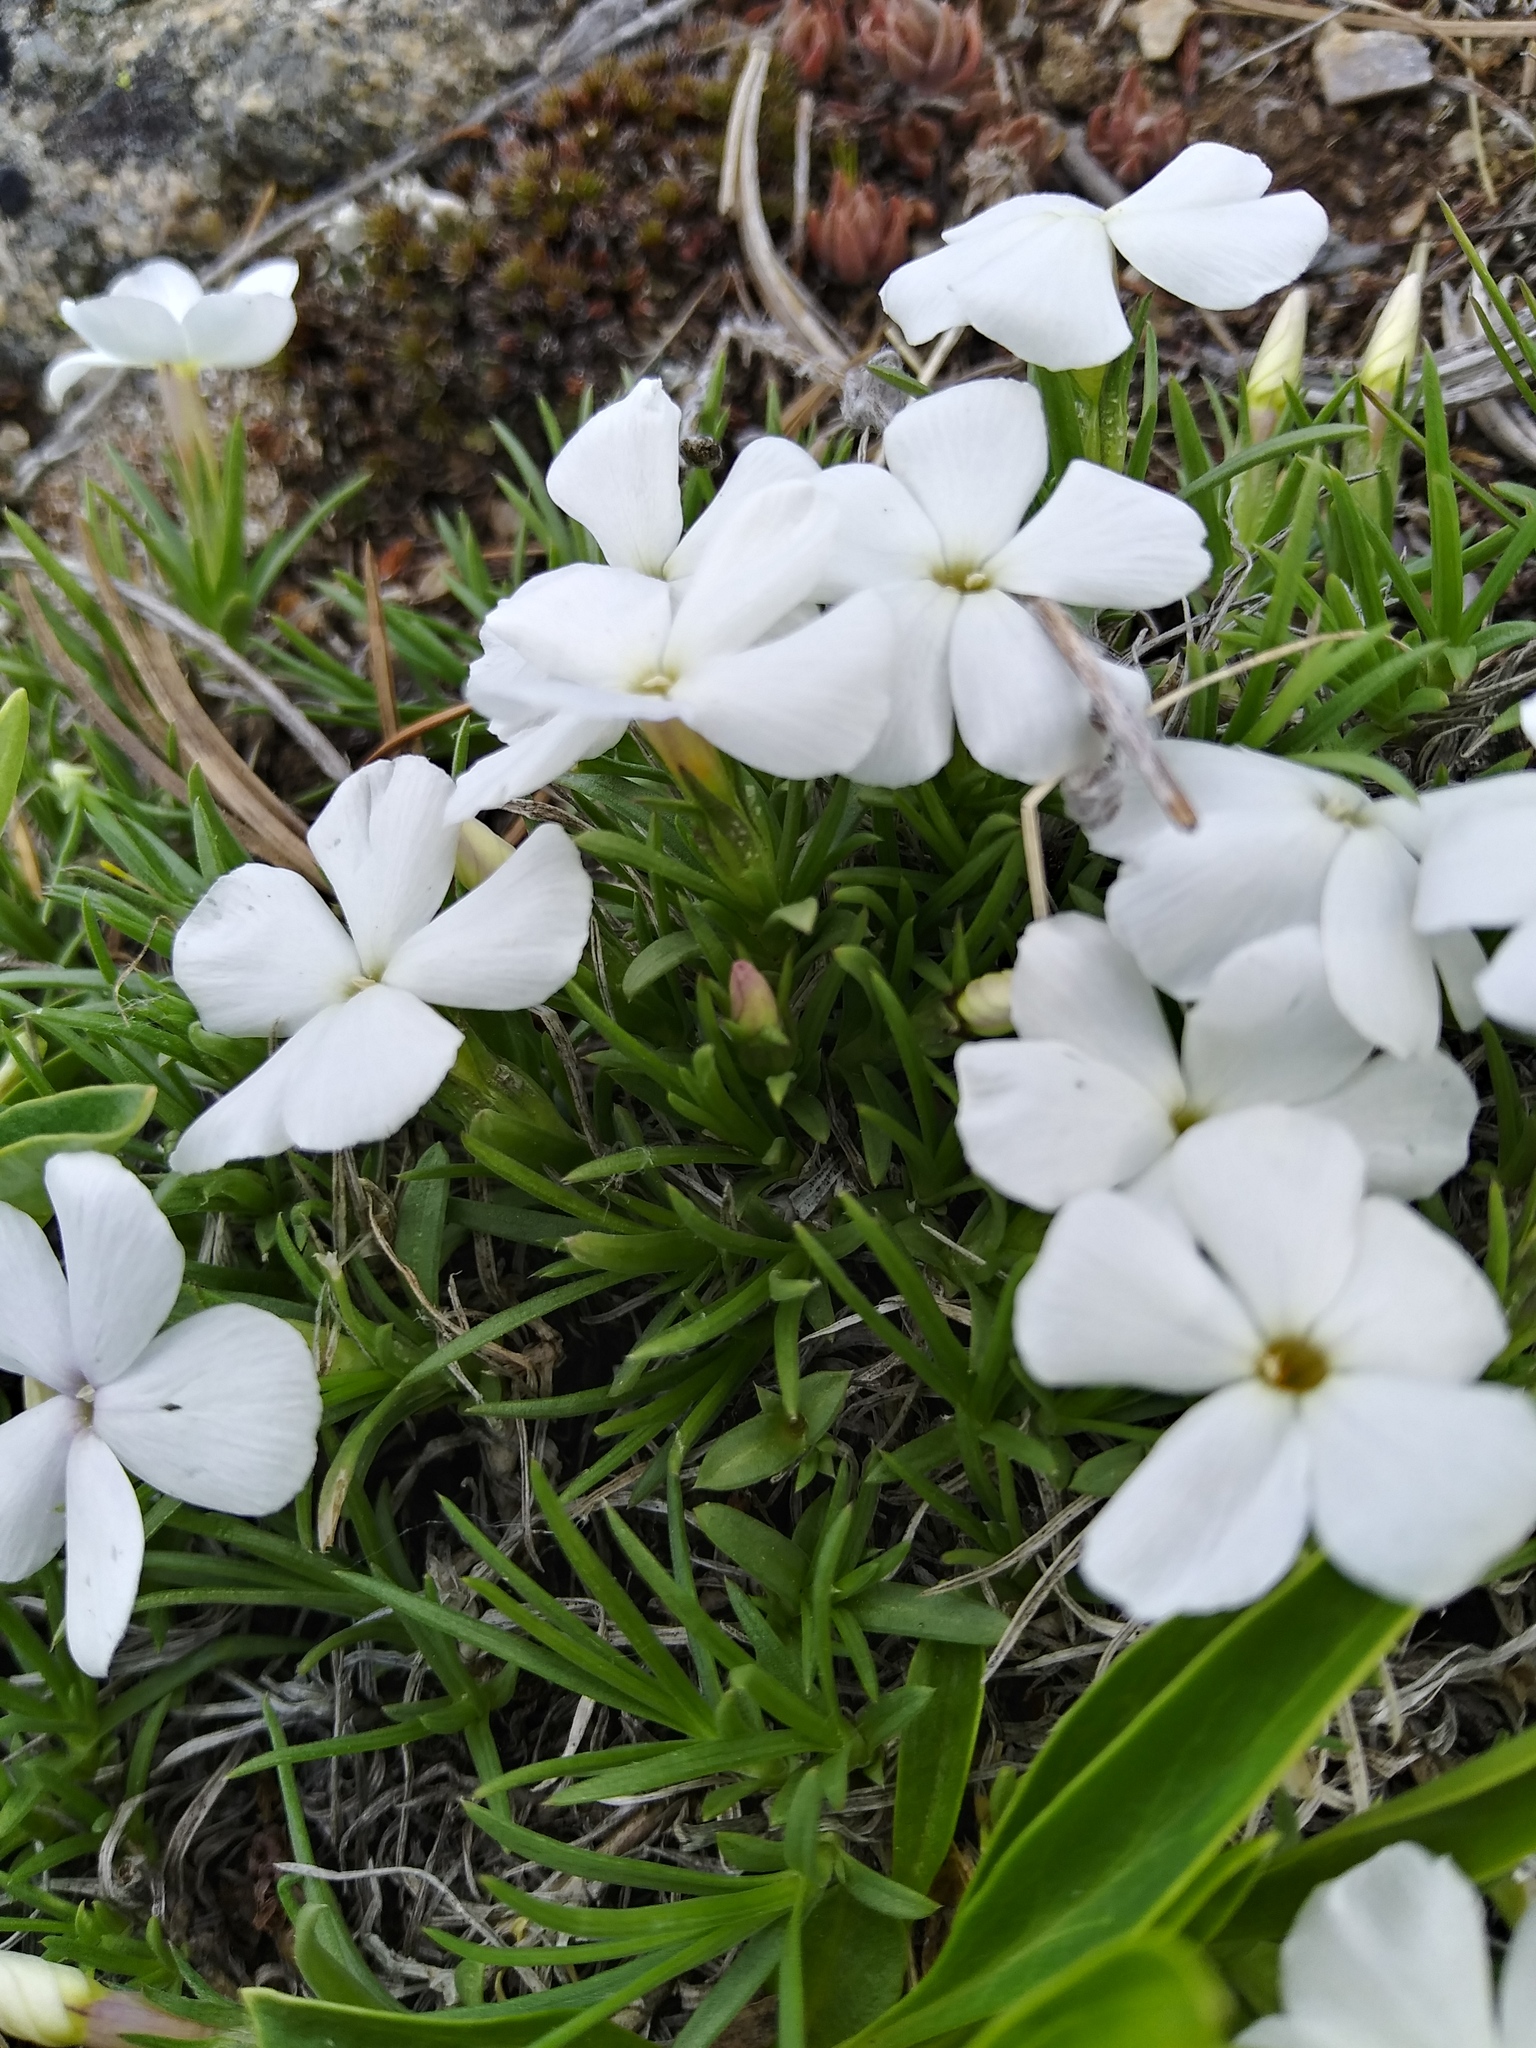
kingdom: Plantae
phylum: Tracheophyta
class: Magnoliopsida
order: Ericales
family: Polemoniaceae
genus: Phlox
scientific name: Phlox multiflora
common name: Rocky mountain phlox
